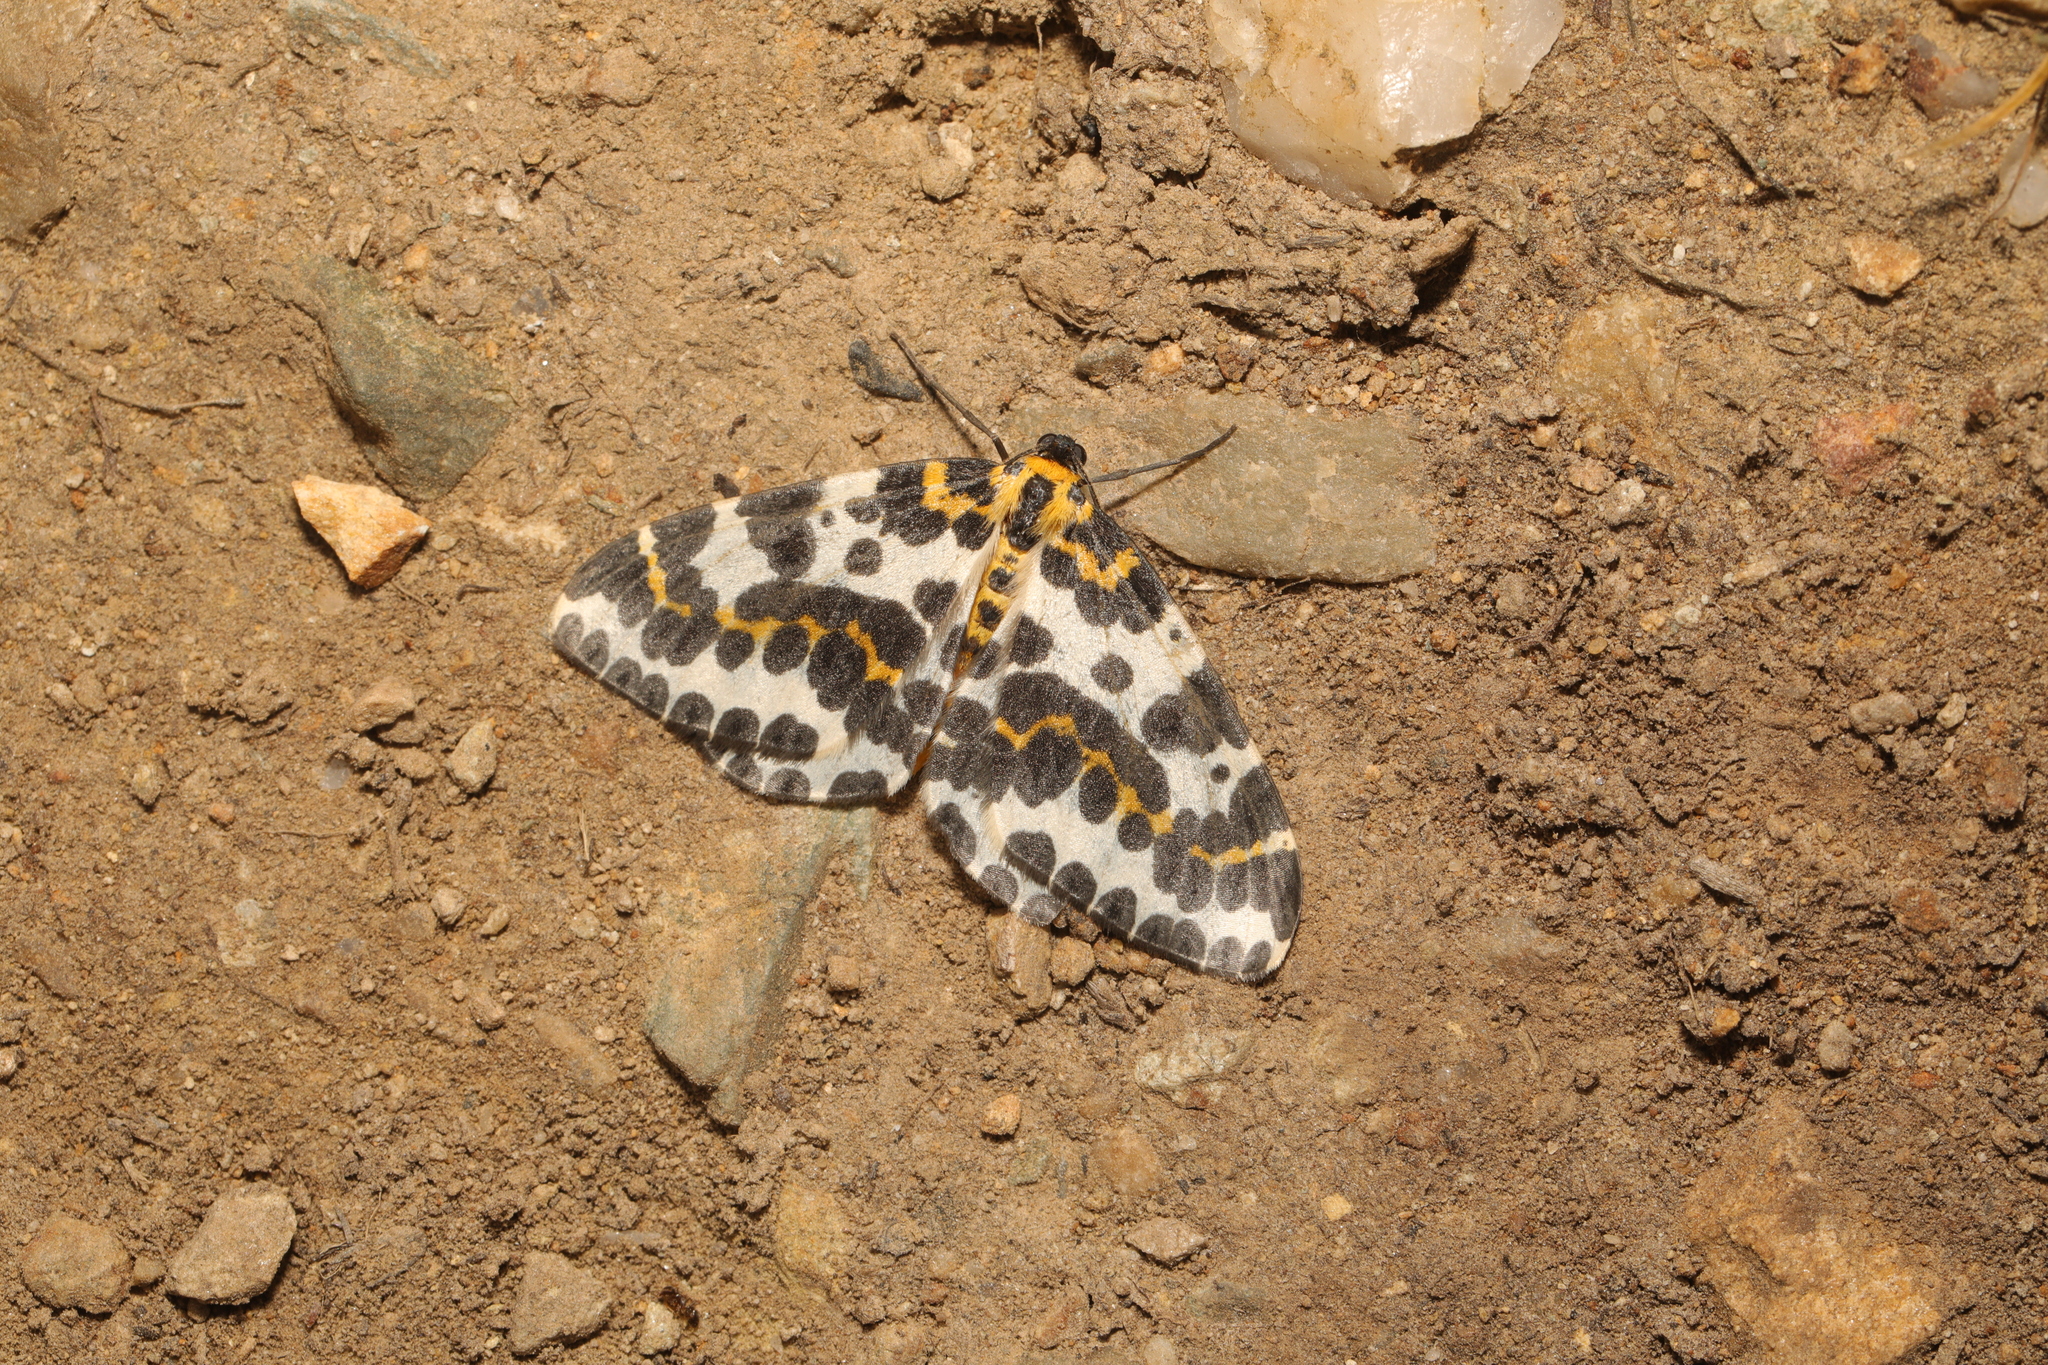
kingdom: Animalia
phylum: Arthropoda
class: Insecta
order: Lepidoptera
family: Geometridae
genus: Abraxas
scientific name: Abraxas grossulariata
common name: Magpie
